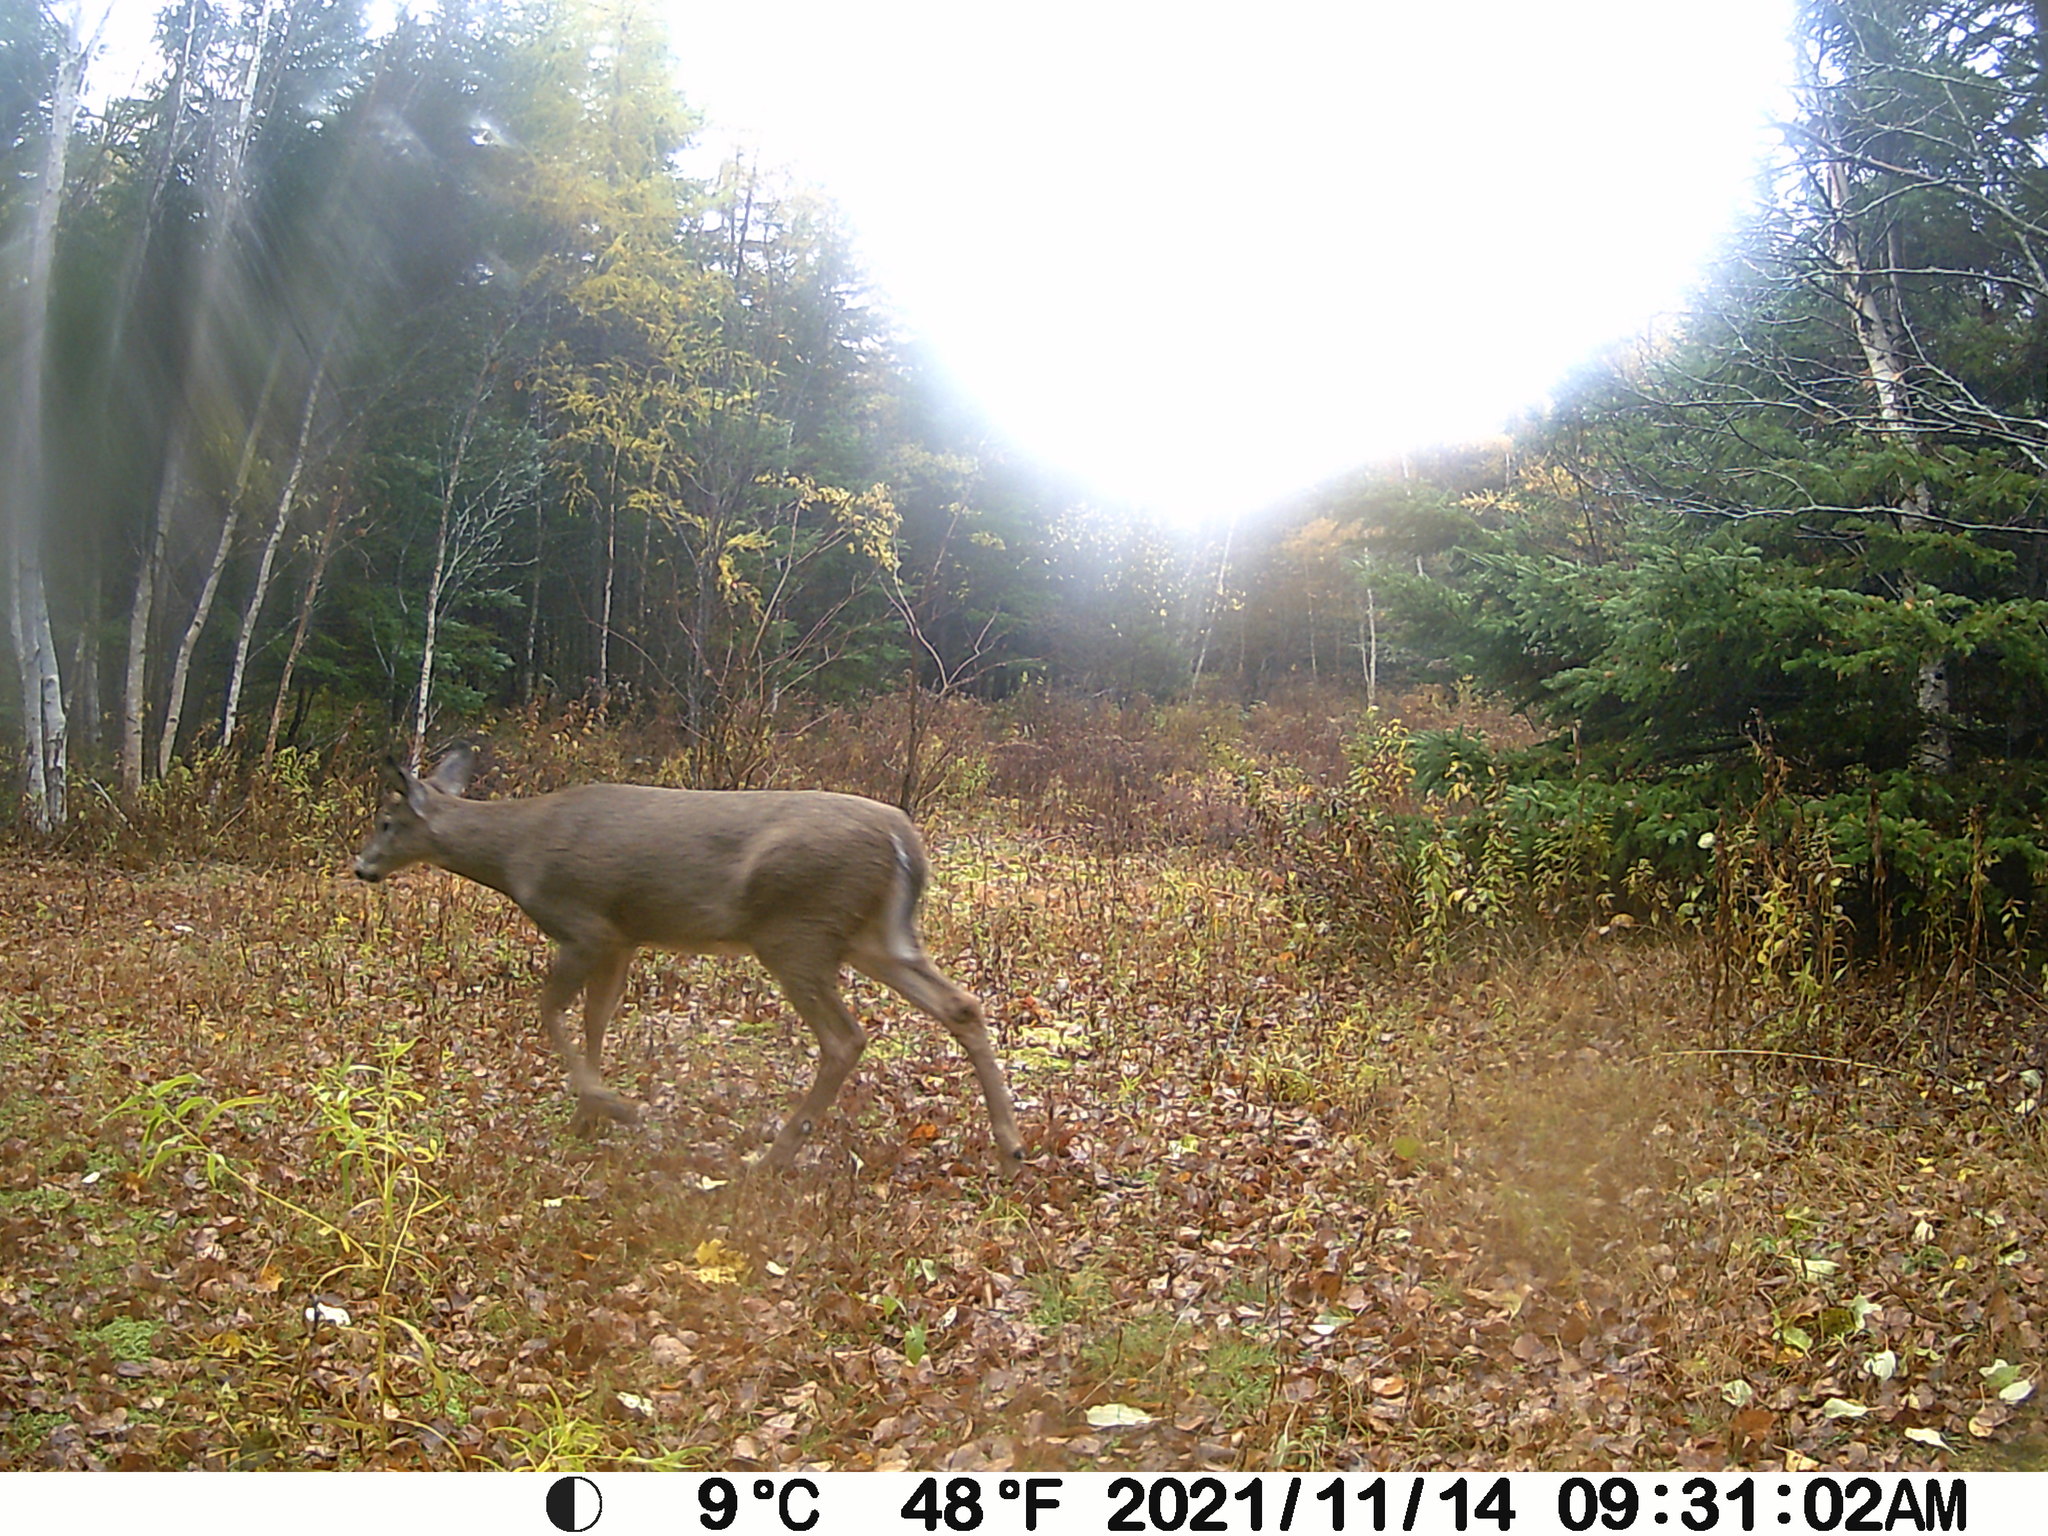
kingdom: Animalia
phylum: Chordata
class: Mammalia
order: Artiodactyla
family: Cervidae
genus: Odocoileus
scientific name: Odocoileus virginianus
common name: White-tailed deer
